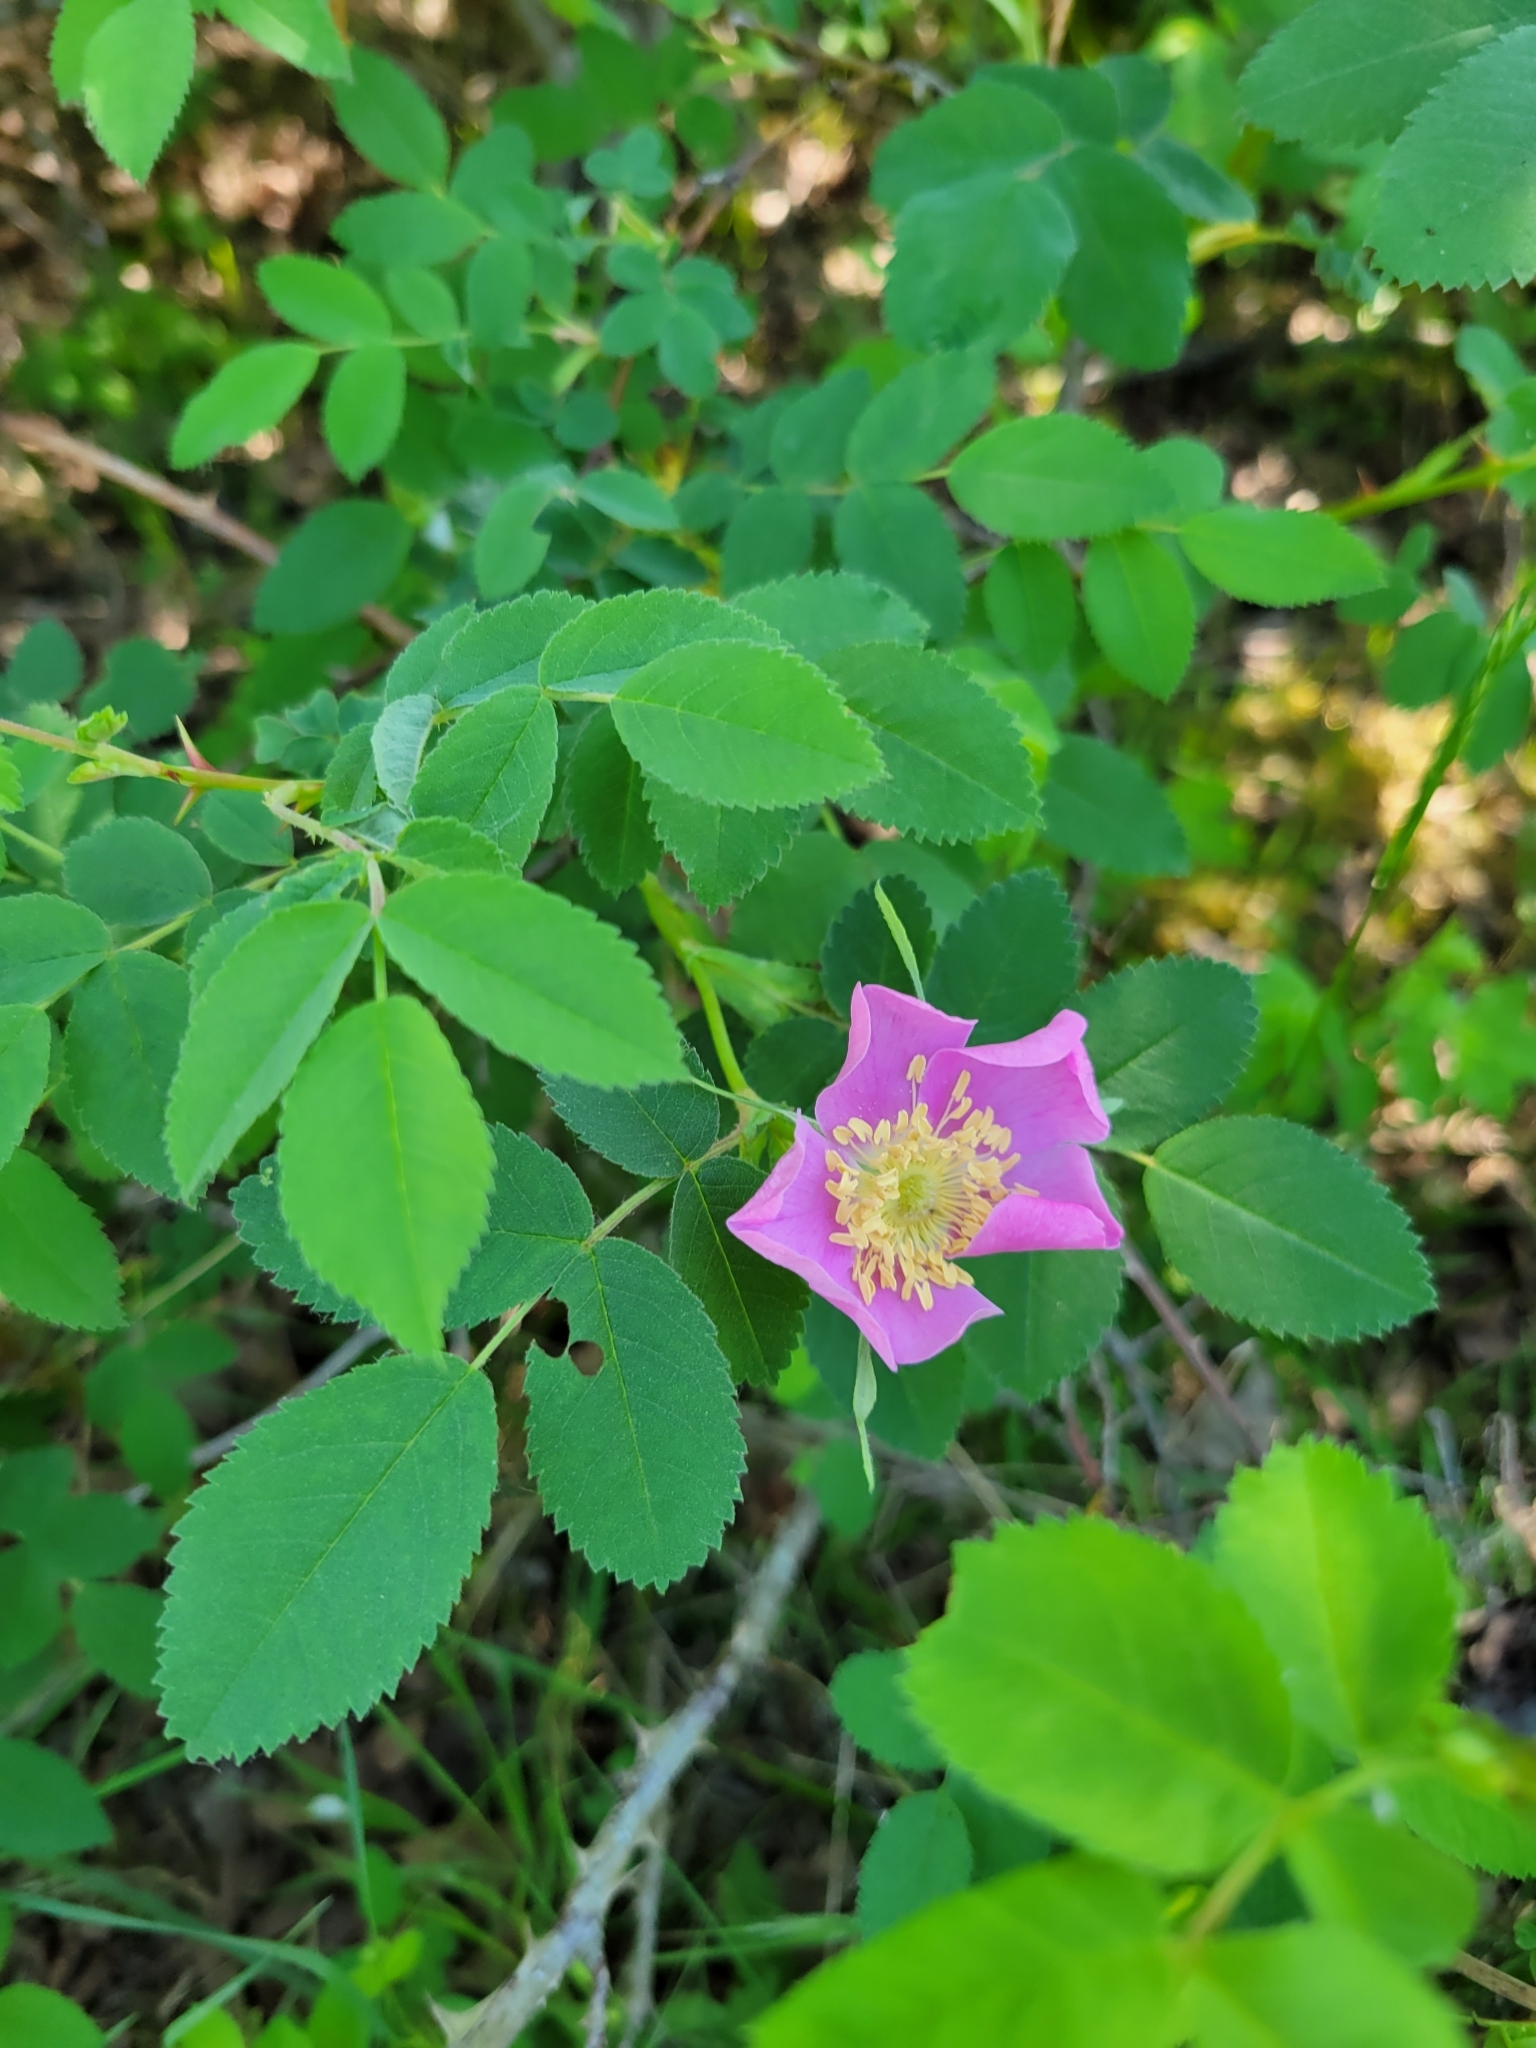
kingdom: Plantae
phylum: Tracheophyta
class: Magnoliopsida
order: Rosales
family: Rosaceae
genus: Rosa
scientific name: Rosa nutkana
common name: Nootka rose
